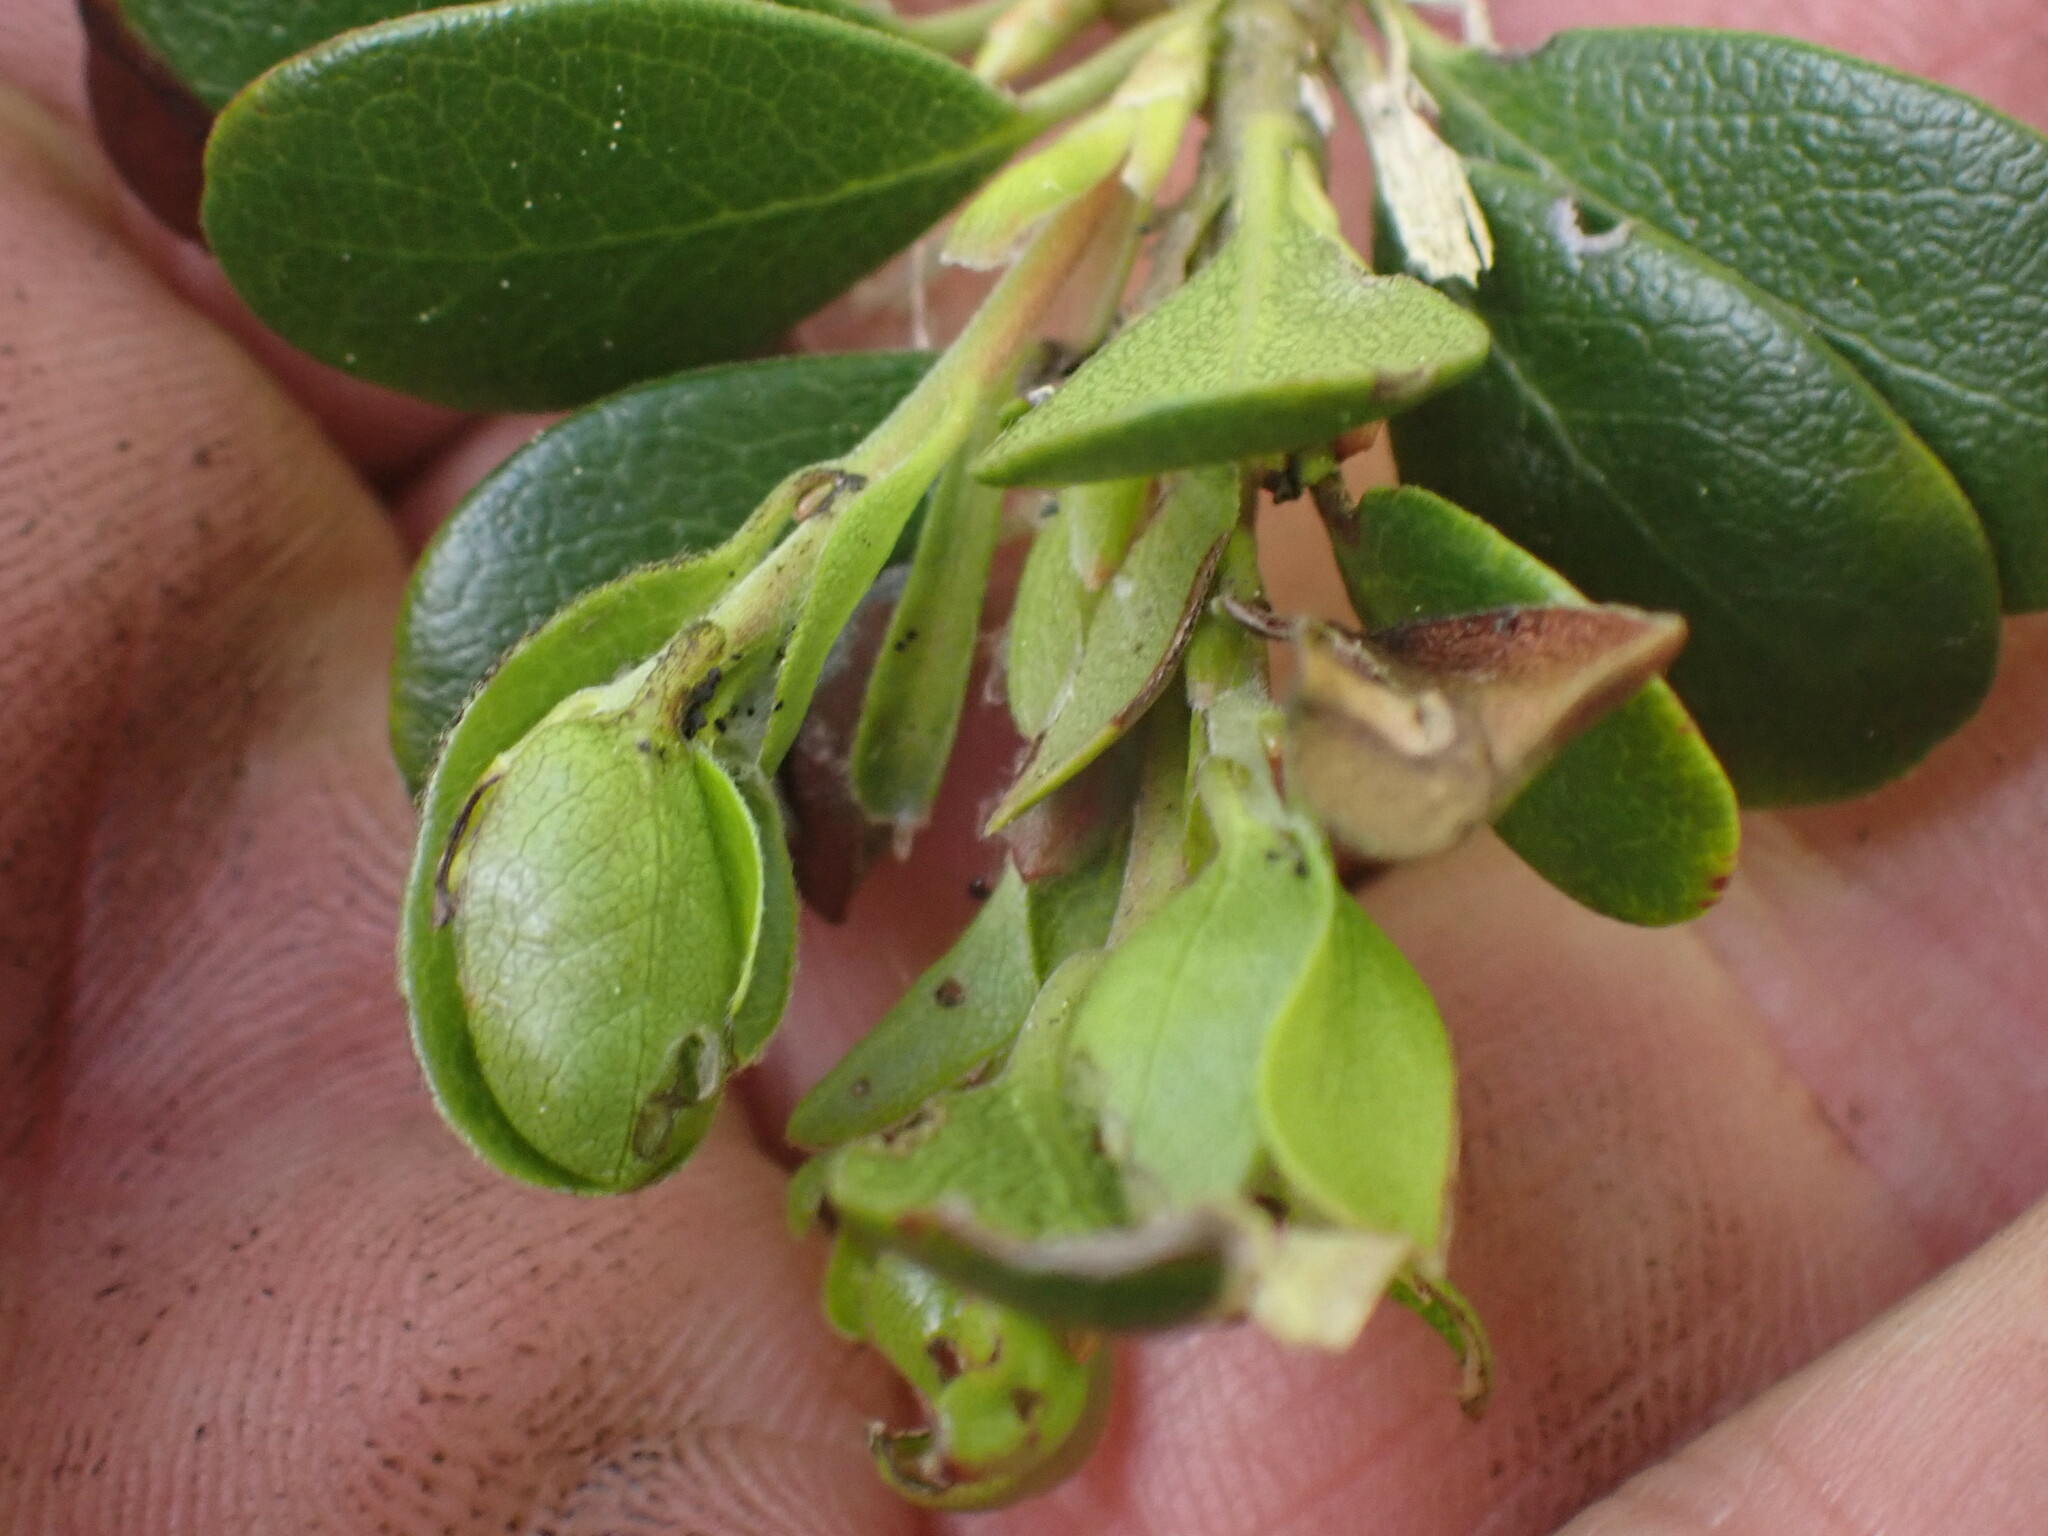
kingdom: Plantae
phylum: Tracheophyta
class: Magnoliopsida
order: Ericales
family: Ericaceae
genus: Arctostaphylos
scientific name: Arctostaphylos uva-ursi
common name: Bearberry
